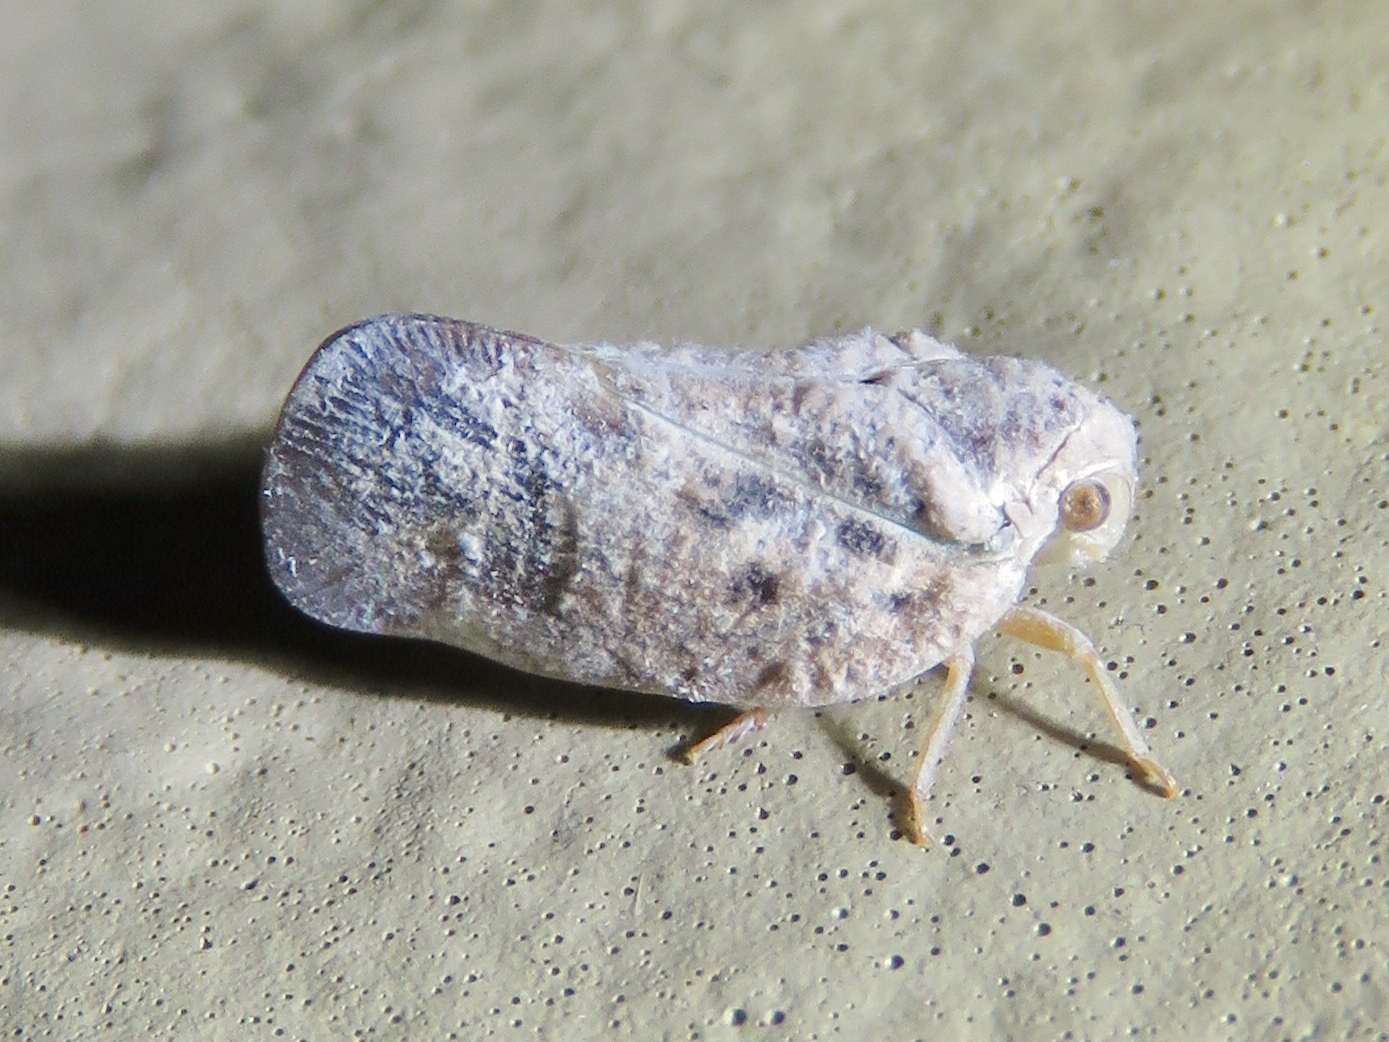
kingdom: Animalia
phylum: Arthropoda
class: Insecta
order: Hemiptera
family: Flatidae
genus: Metcalfa
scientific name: Metcalfa pruinosa
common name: Citrus flatid planthopper
